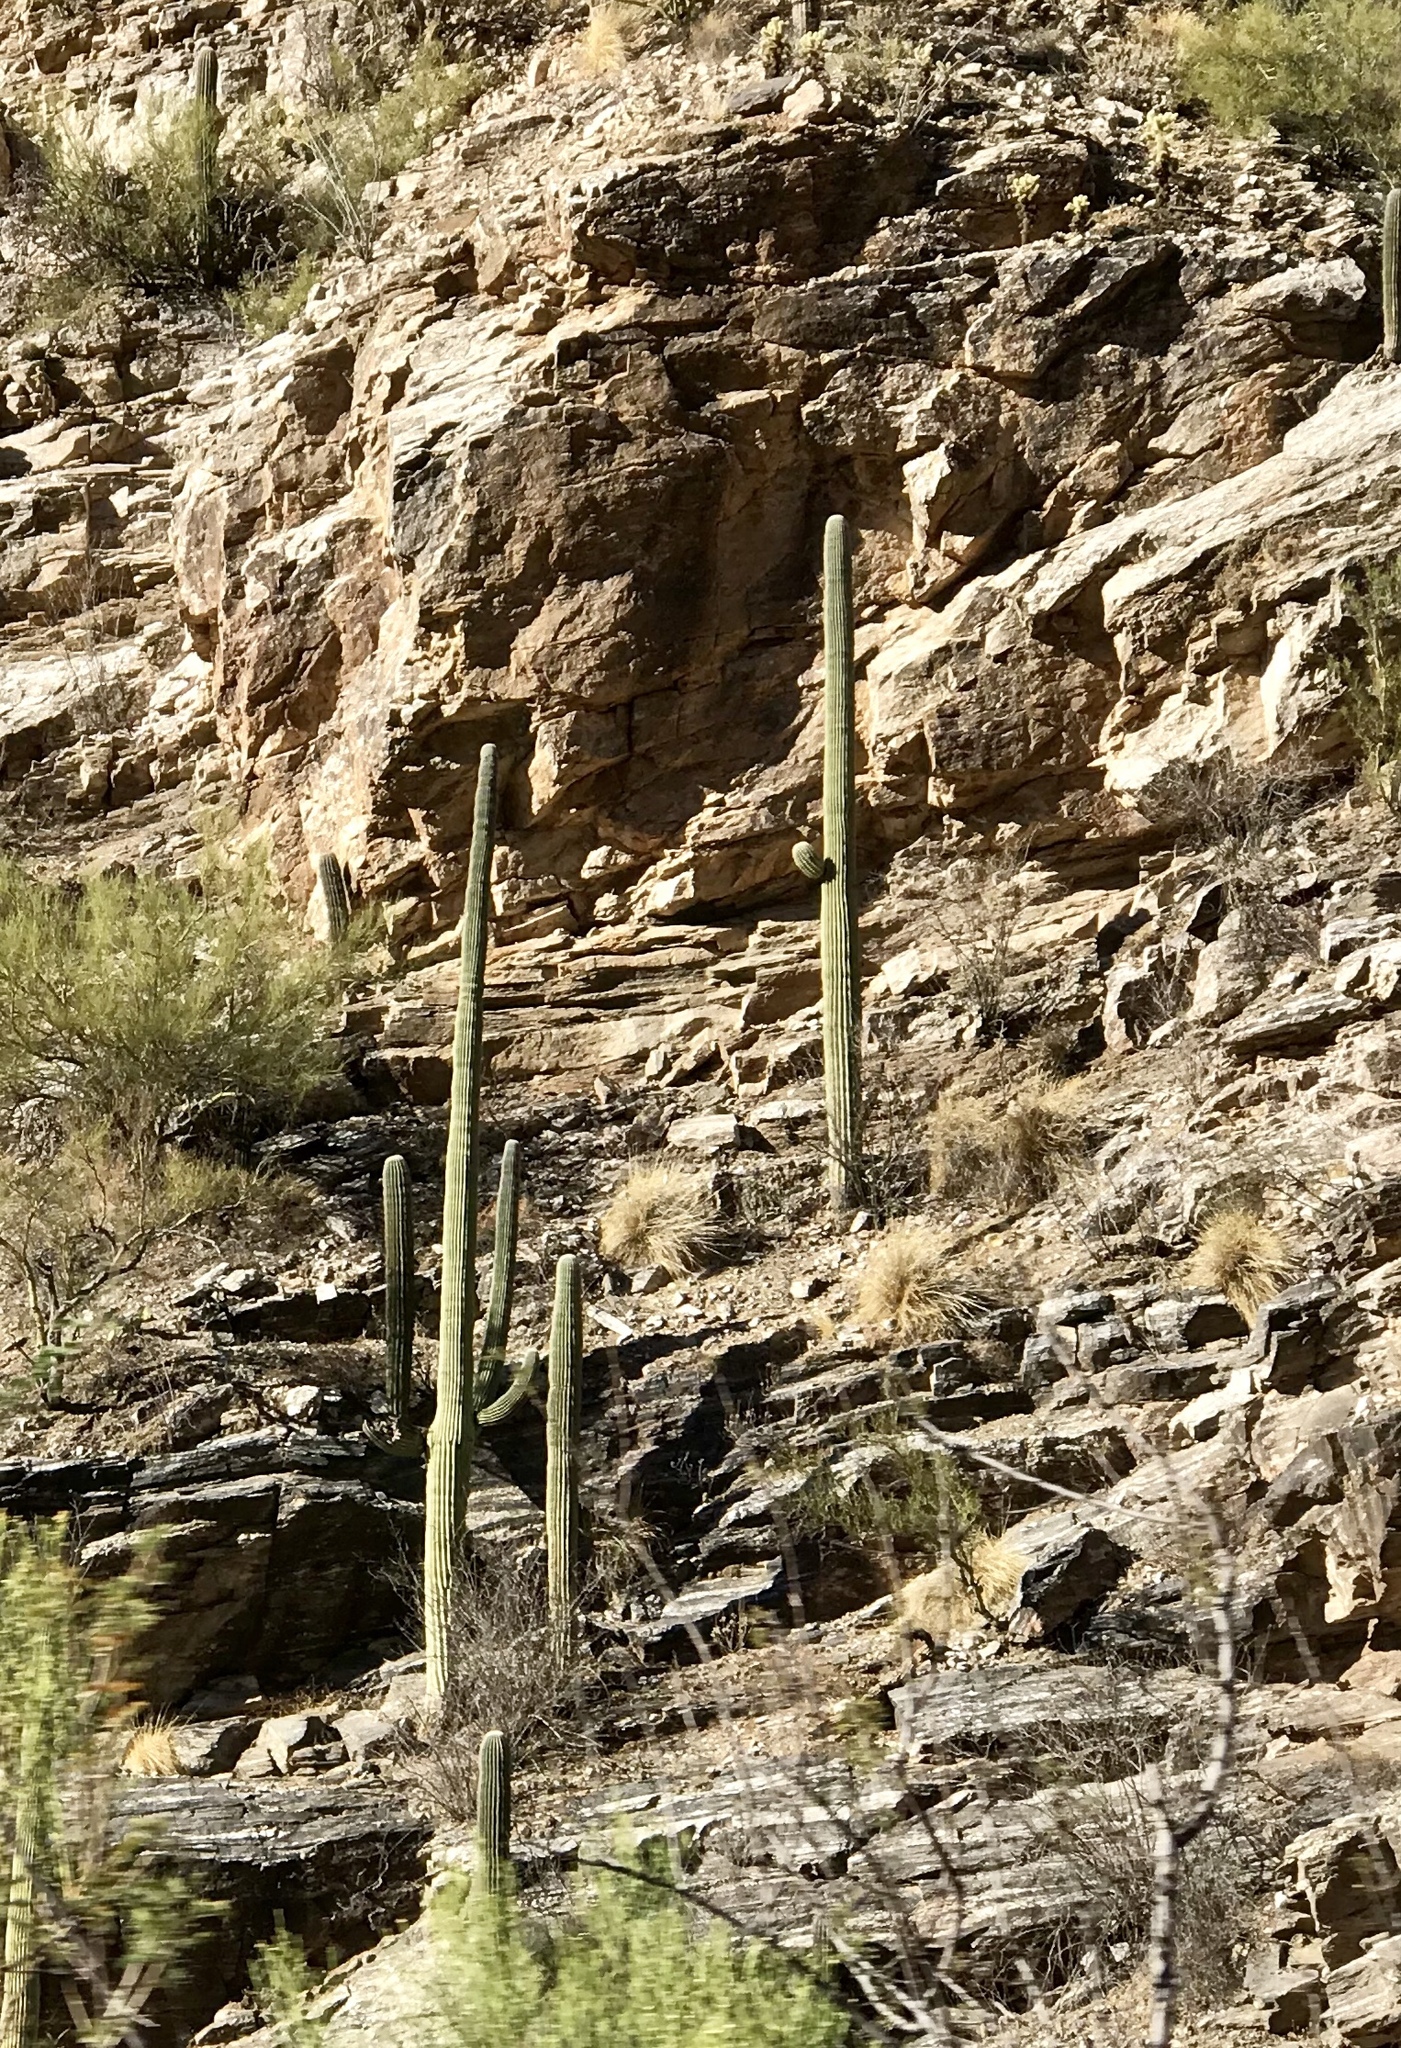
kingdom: Plantae
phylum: Tracheophyta
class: Magnoliopsida
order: Caryophyllales
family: Cactaceae
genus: Carnegiea
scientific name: Carnegiea gigantea
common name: Saguaro
